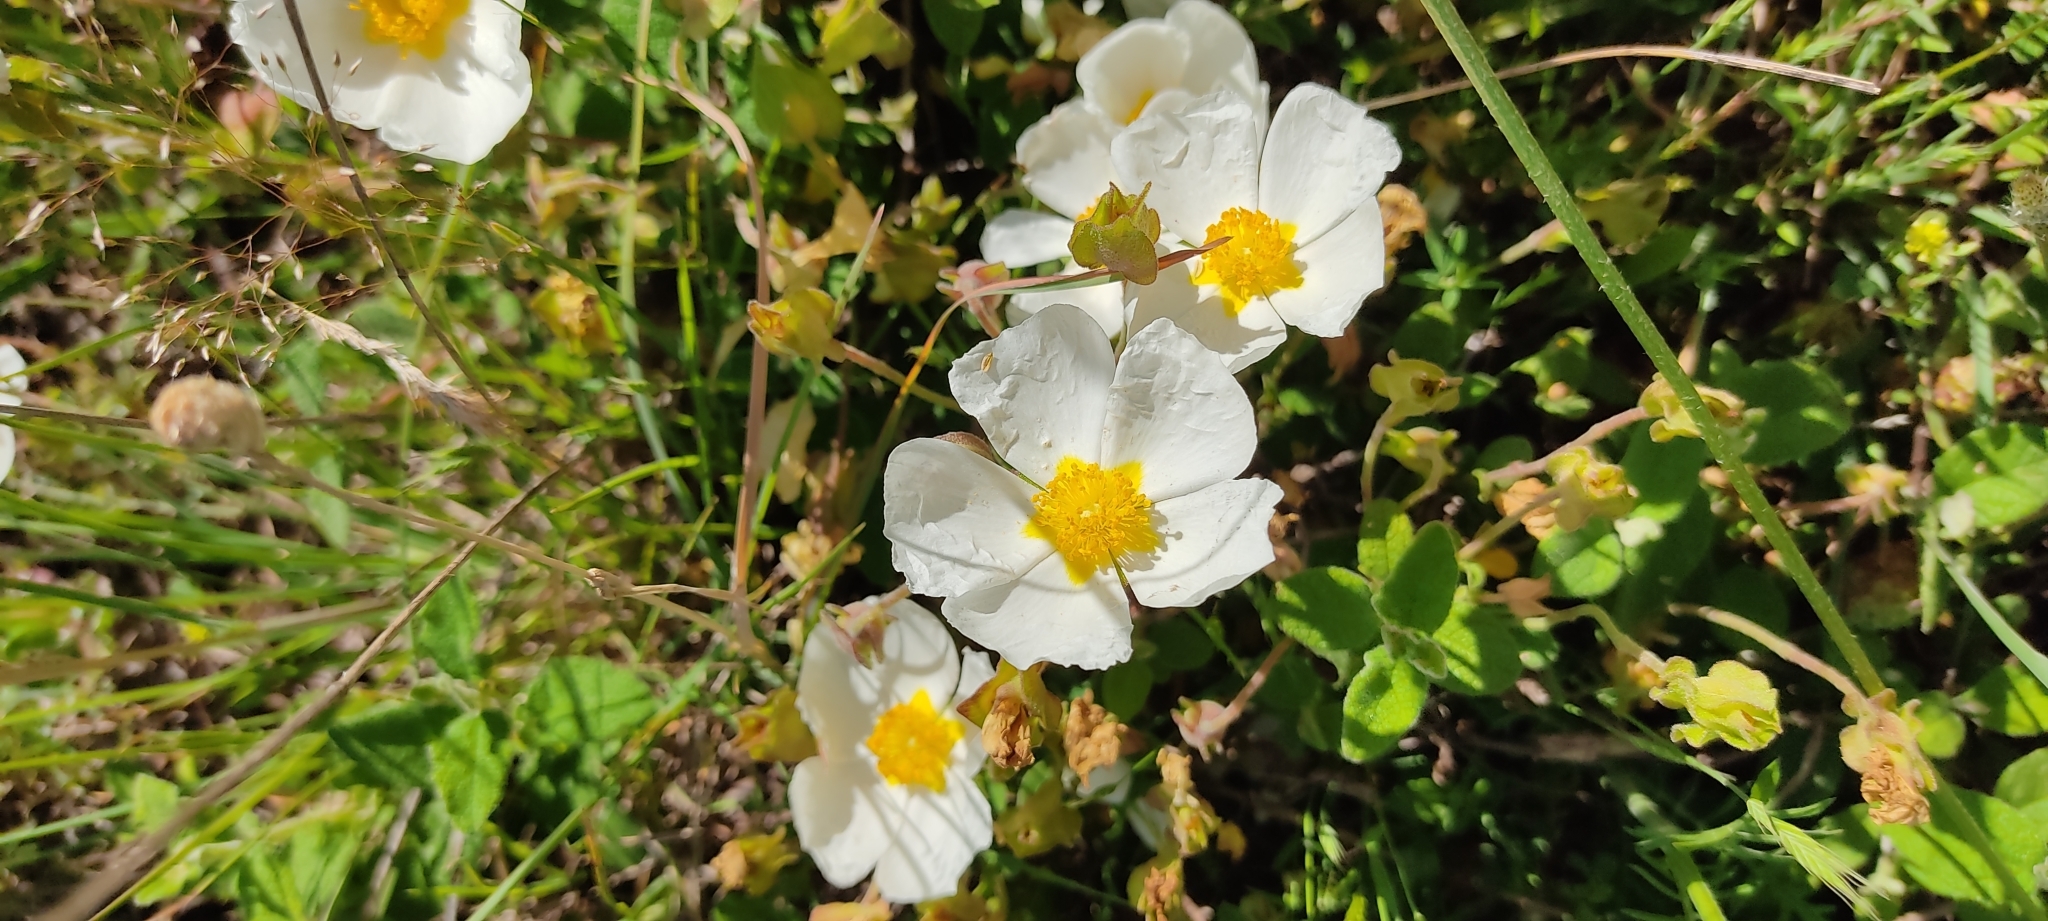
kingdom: Plantae
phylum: Tracheophyta
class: Magnoliopsida
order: Malvales
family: Cistaceae
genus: Cistus
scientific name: Cistus salviifolius
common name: Salvia cistus
